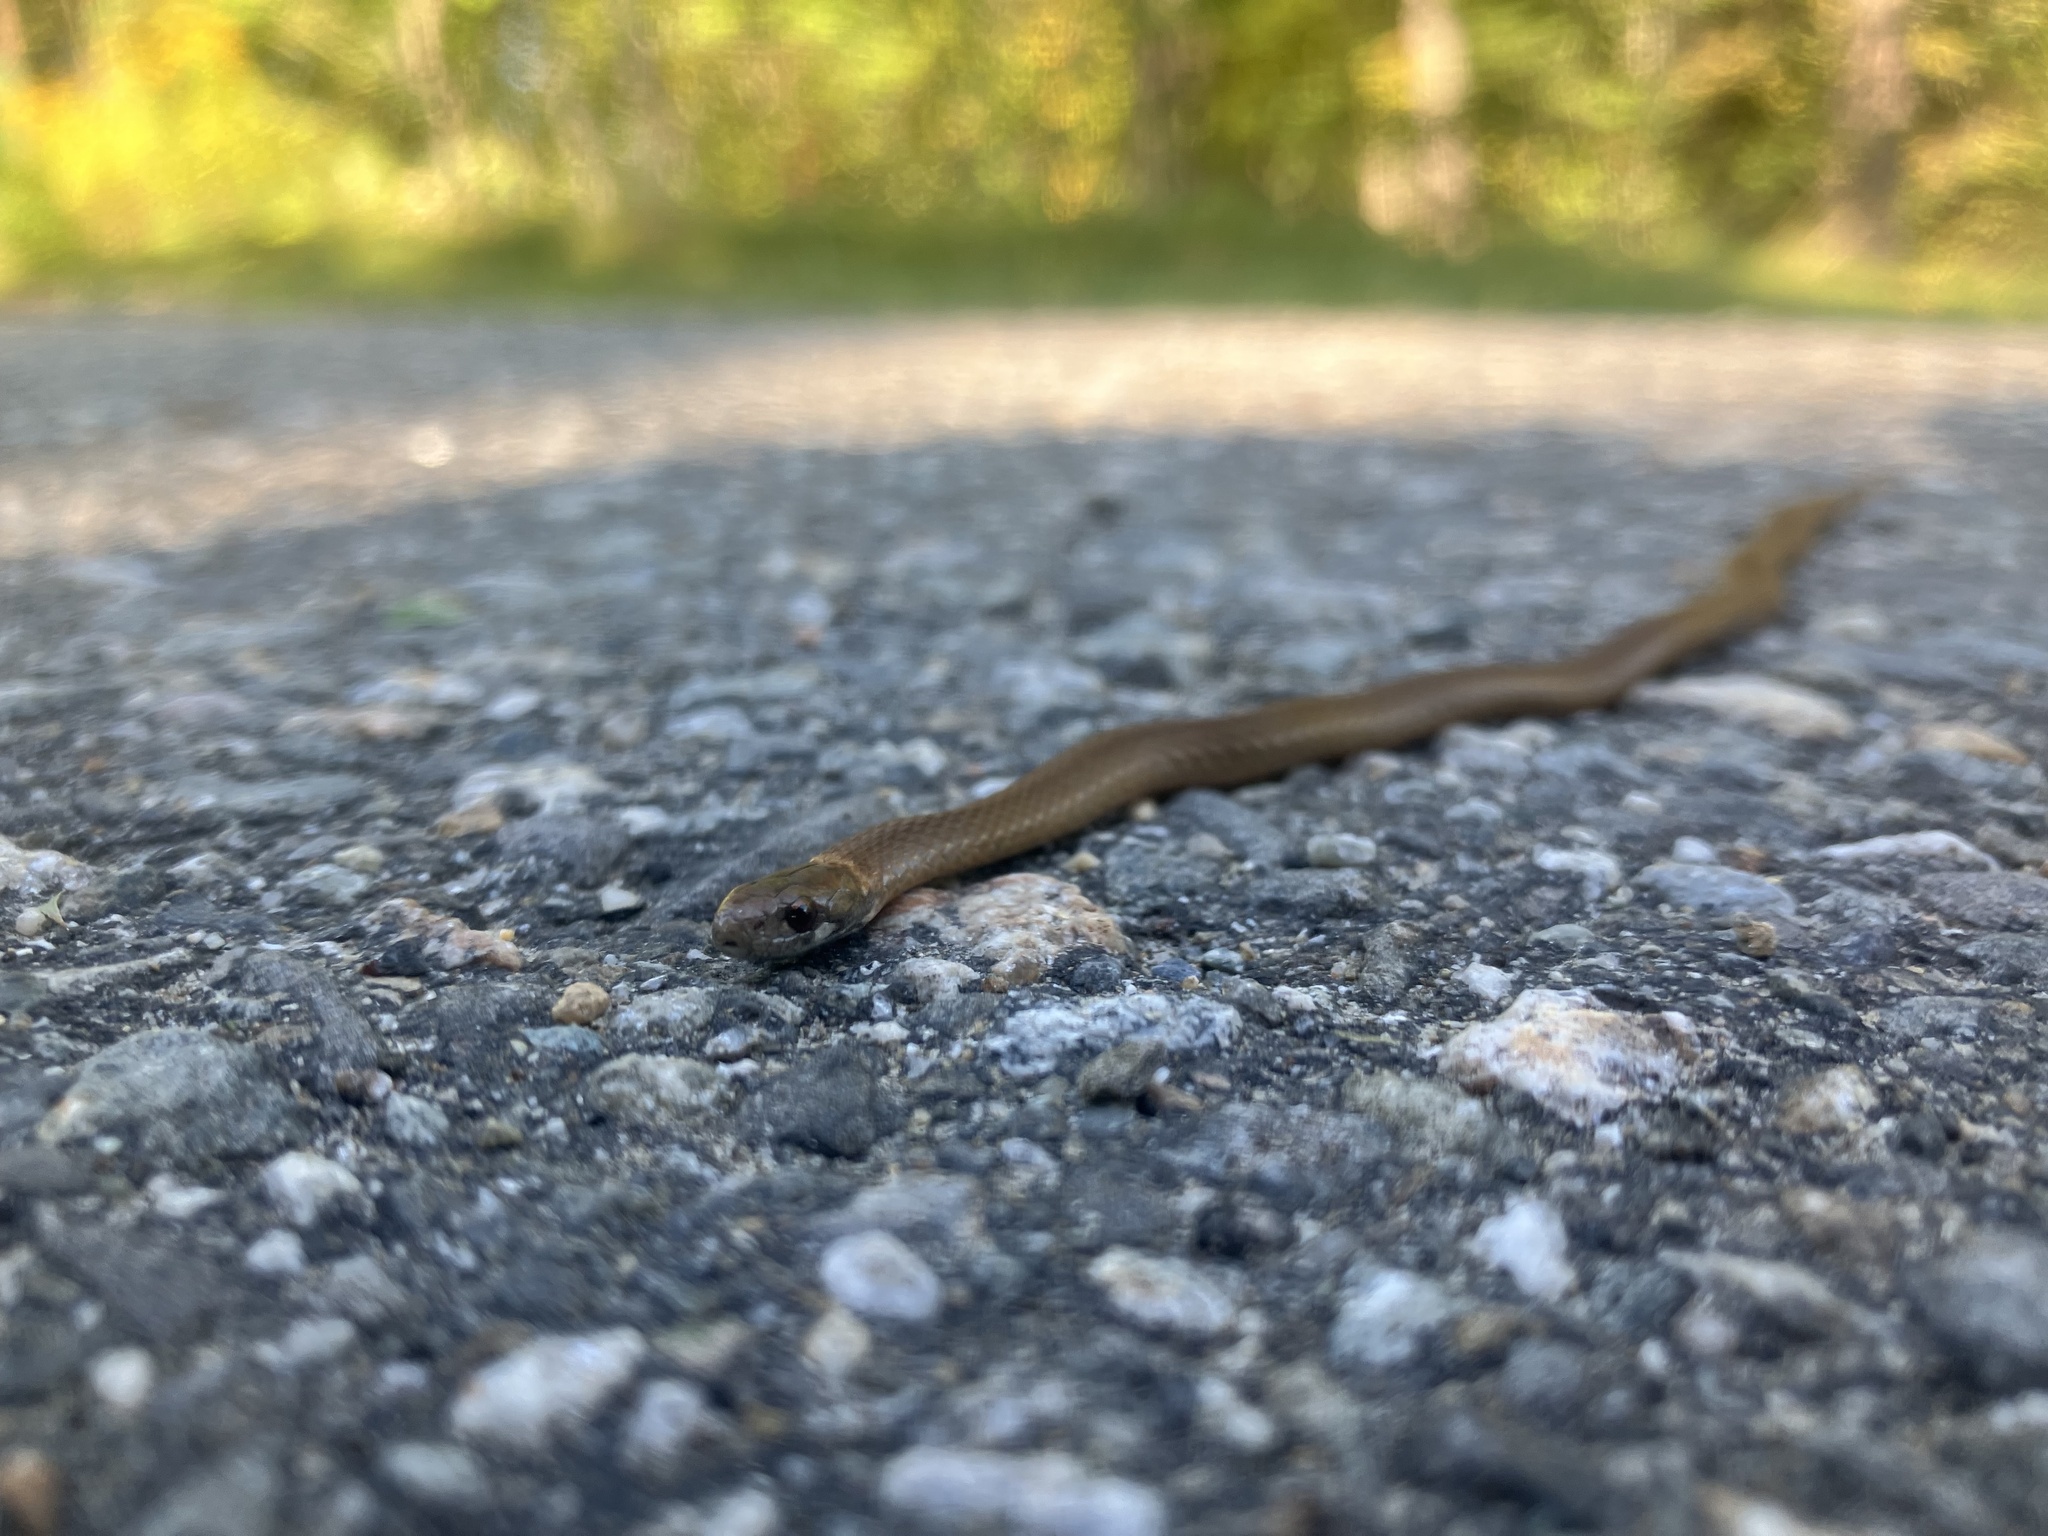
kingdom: Animalia
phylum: Chordata
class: Squamata
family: Colubridae
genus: Storeria
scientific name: Storeria occipitomaculata
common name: Redbelly snake
